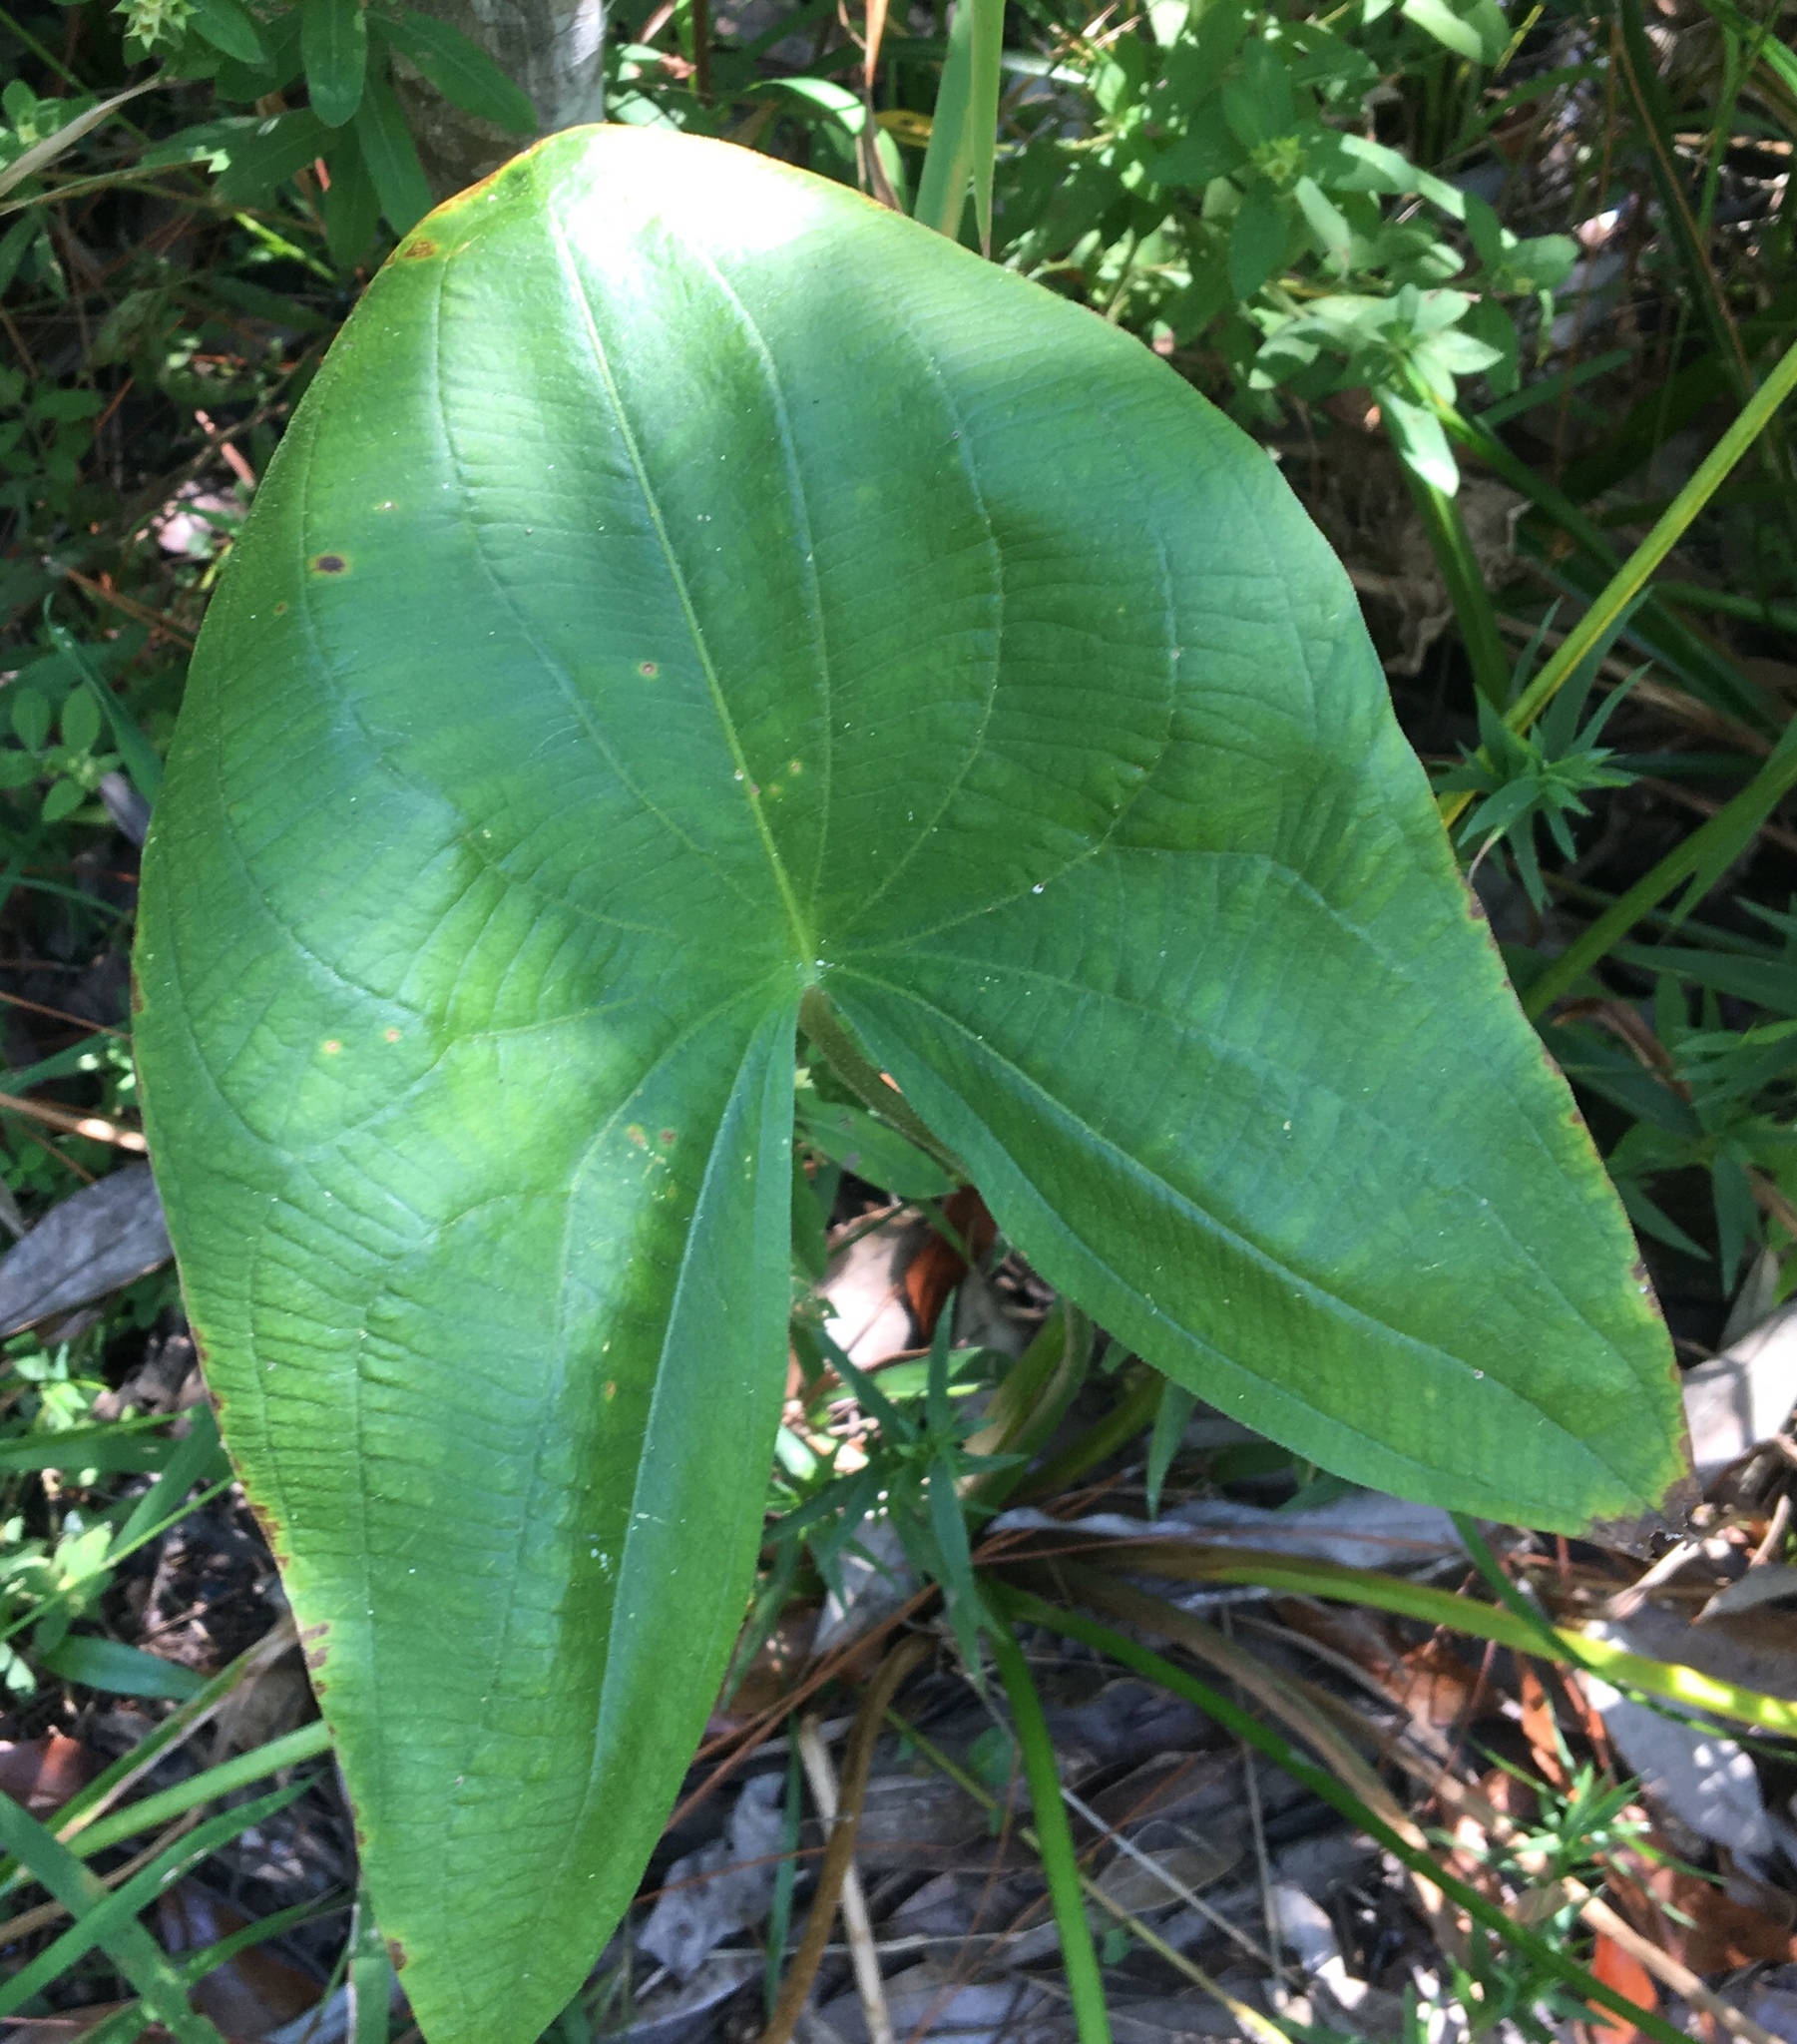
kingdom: Plantae
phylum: Tracheophyta
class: Liliopsida
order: Alismatales
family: Alismataceae
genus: Sagittaria
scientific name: Sagittaria latifolia
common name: Duck-potato
